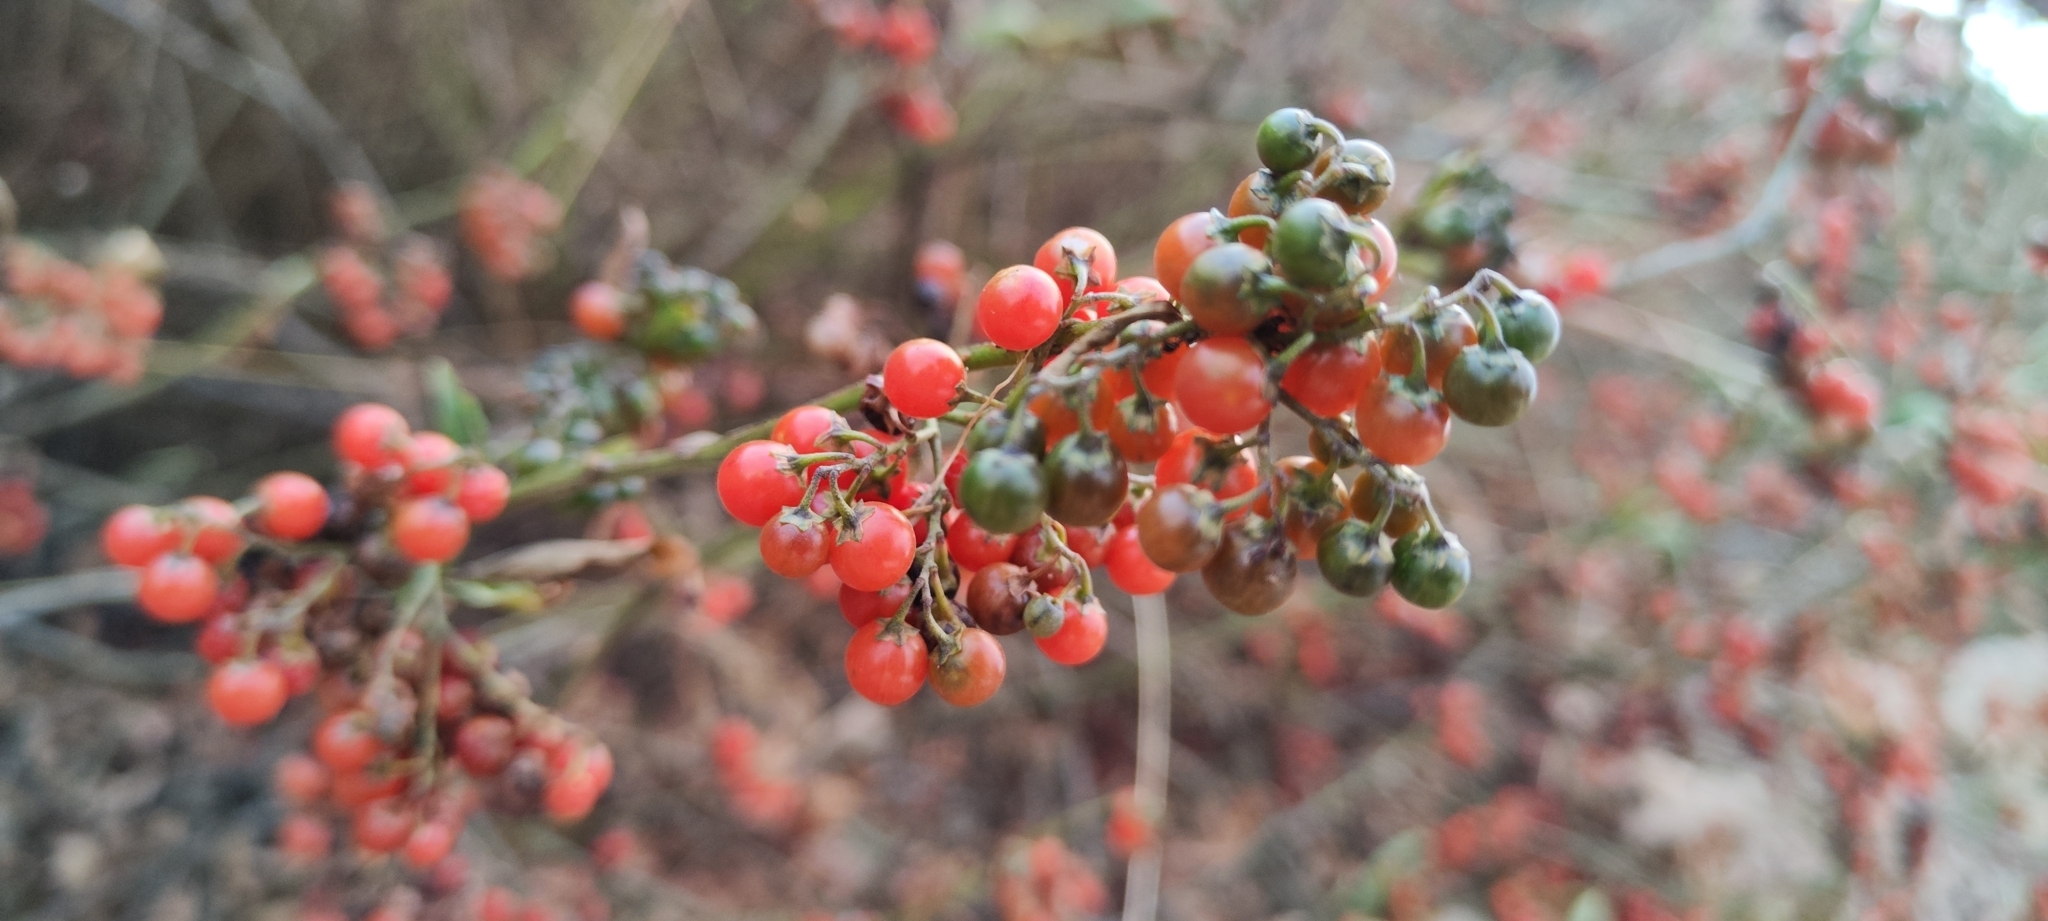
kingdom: Plantae
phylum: Tracheophyta
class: Magnoliopsida
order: Solanales
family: Solanaceae
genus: Solanum
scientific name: Solanum corymbosum
